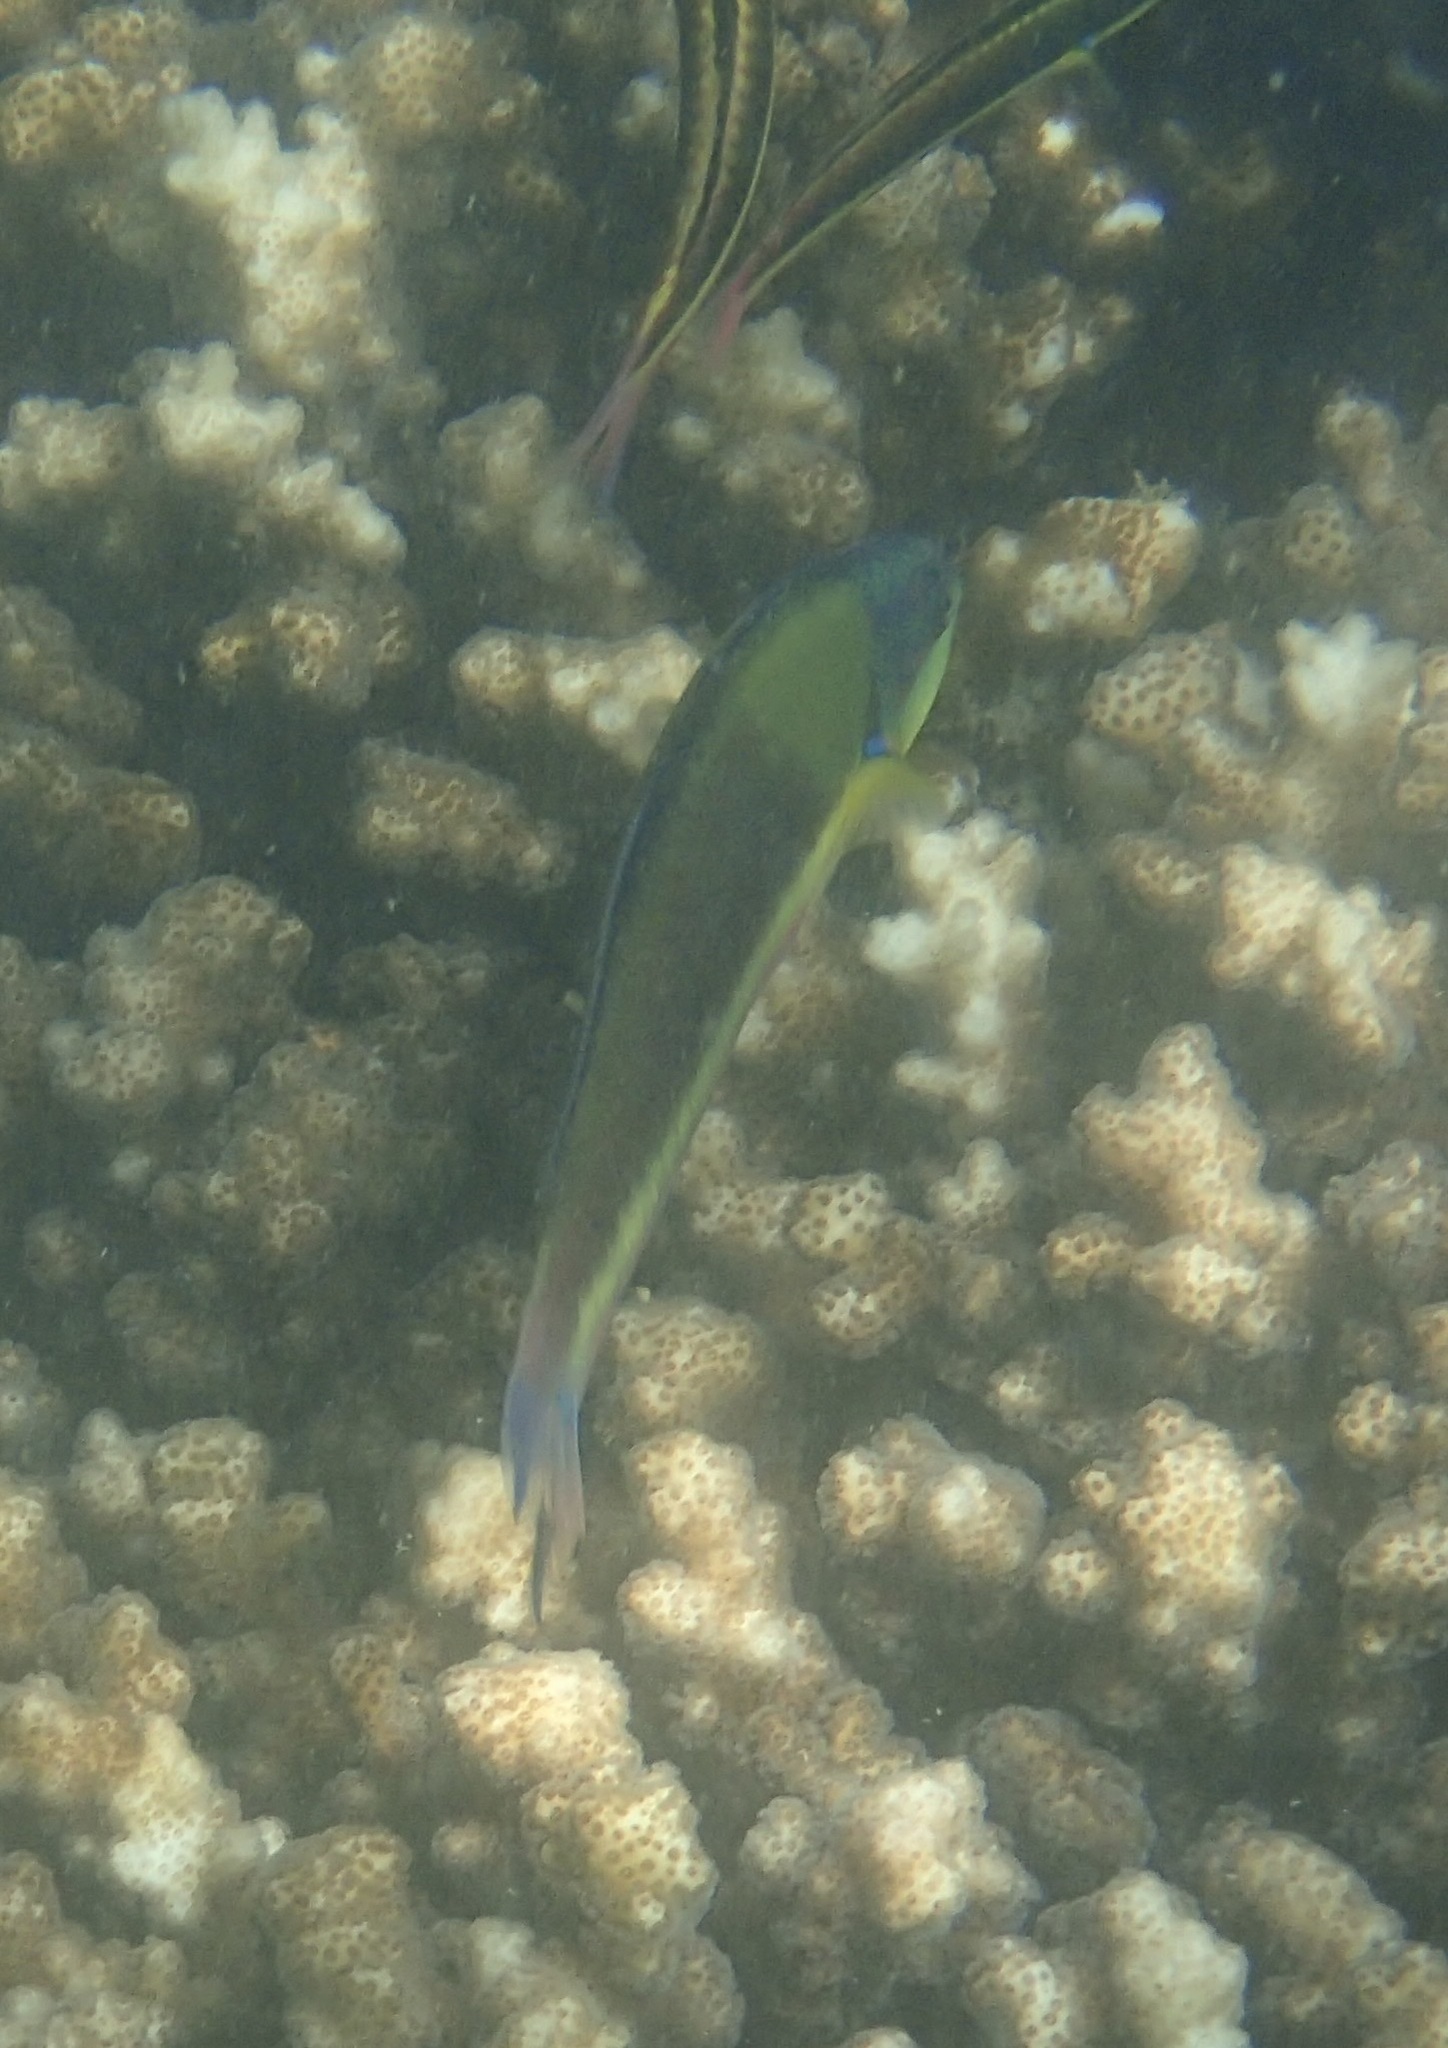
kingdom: Animalia
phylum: Chordata
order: Perciformes
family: Labridae
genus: Thalassoma
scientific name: Thalassoma lucasanum
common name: Cortez rainbow wrasse
